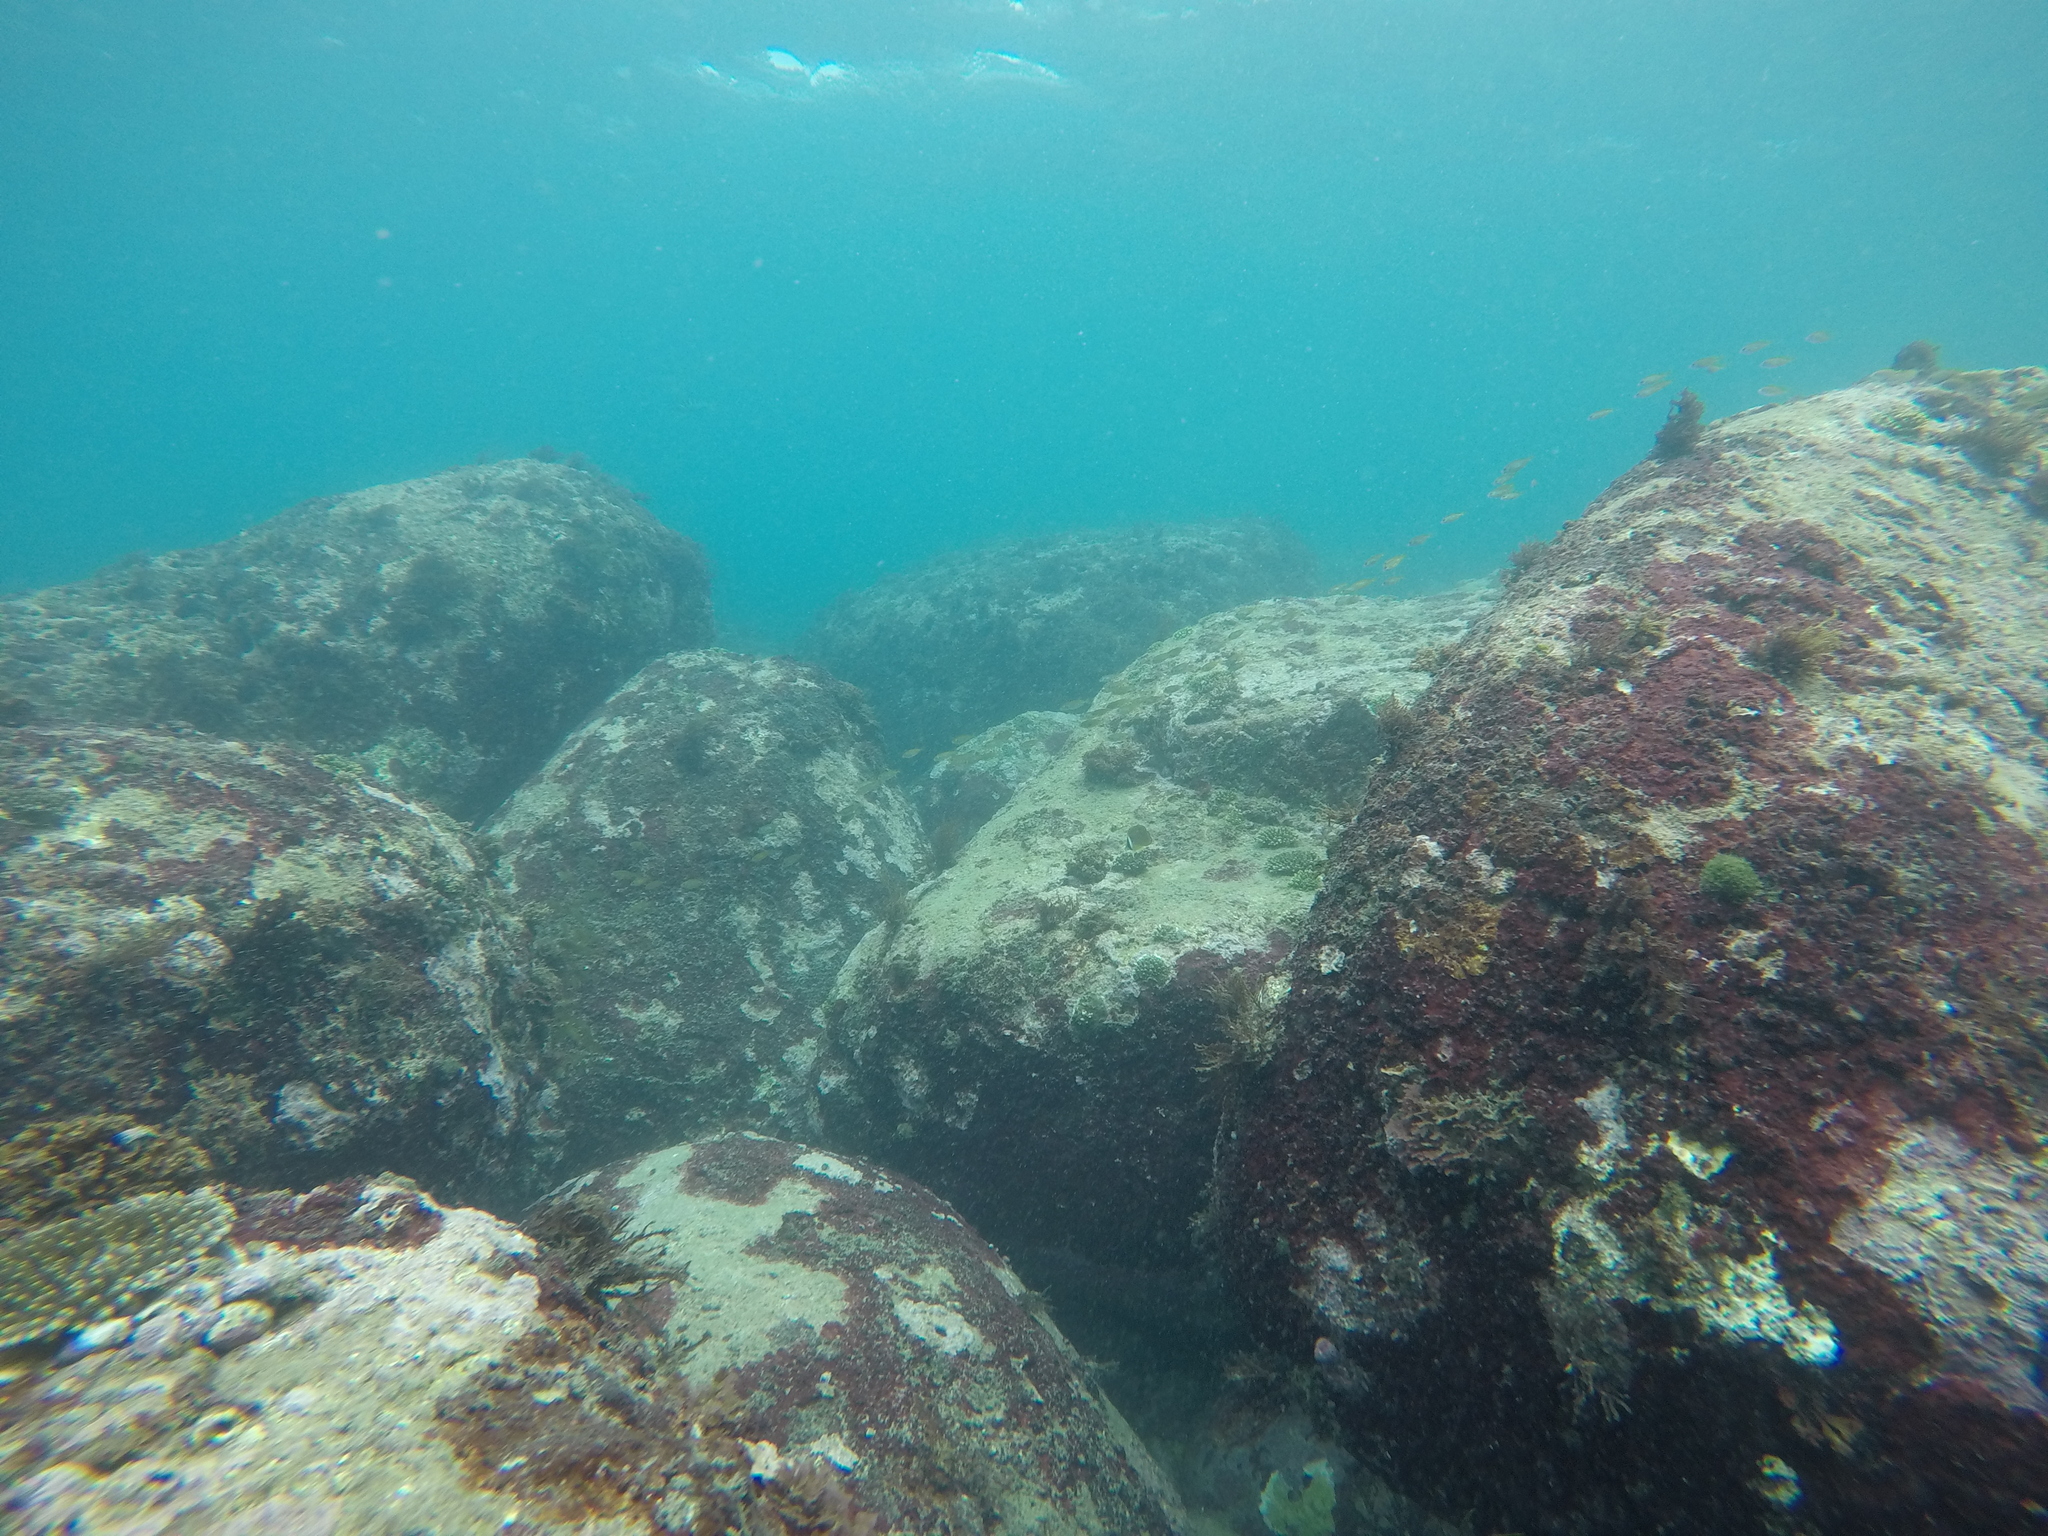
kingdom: Animalia
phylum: Chordata
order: Perciformes
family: Chaetodontidae
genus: Chaetodon
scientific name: Chaetodon auripes
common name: Oriental butterflyfish
